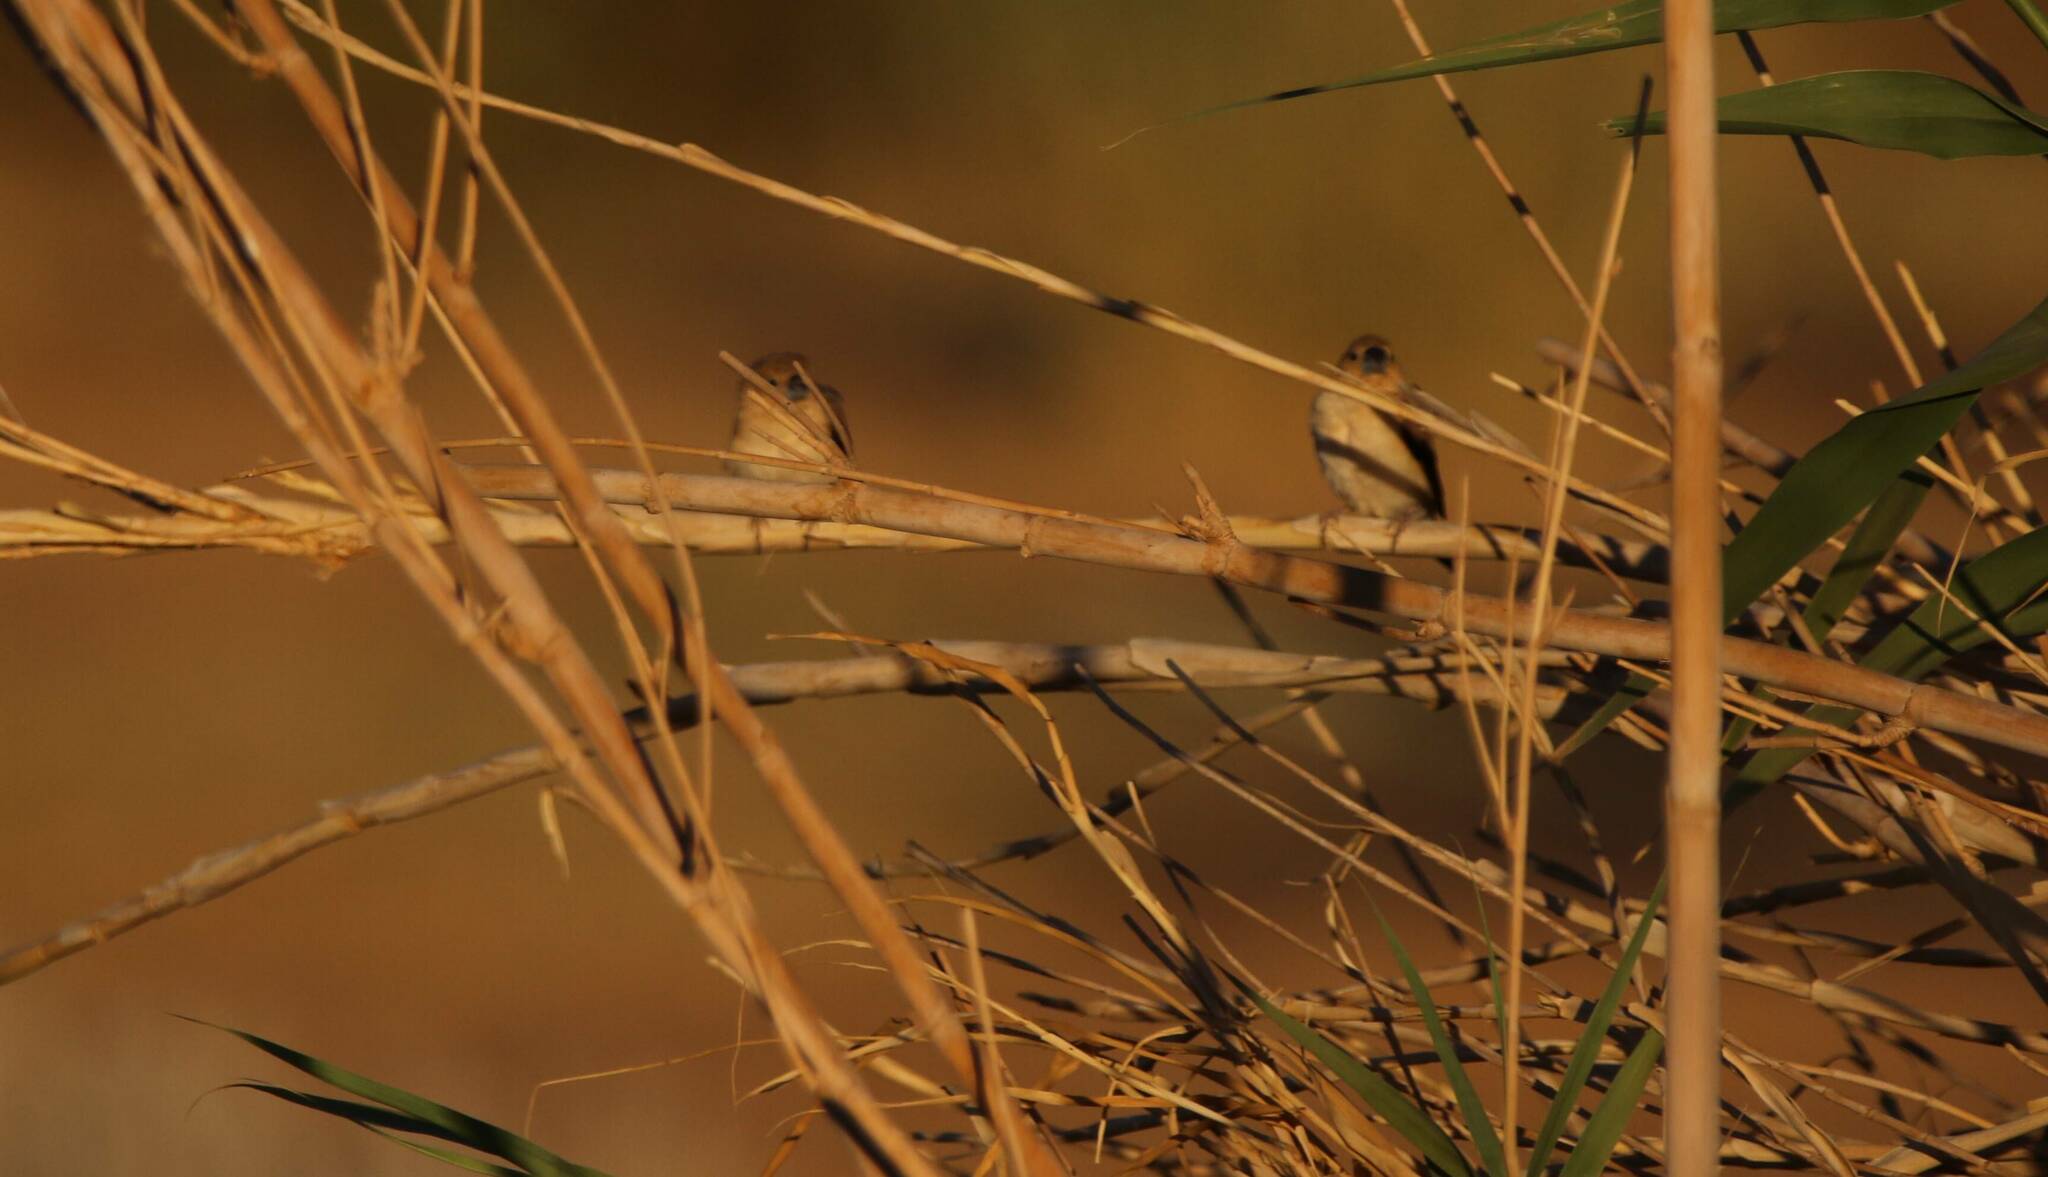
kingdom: Animalia
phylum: Chordata
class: Aves
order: Passeriformes
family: Estrildidae
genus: Euodice
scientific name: Euodice cantans
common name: African silverbill
